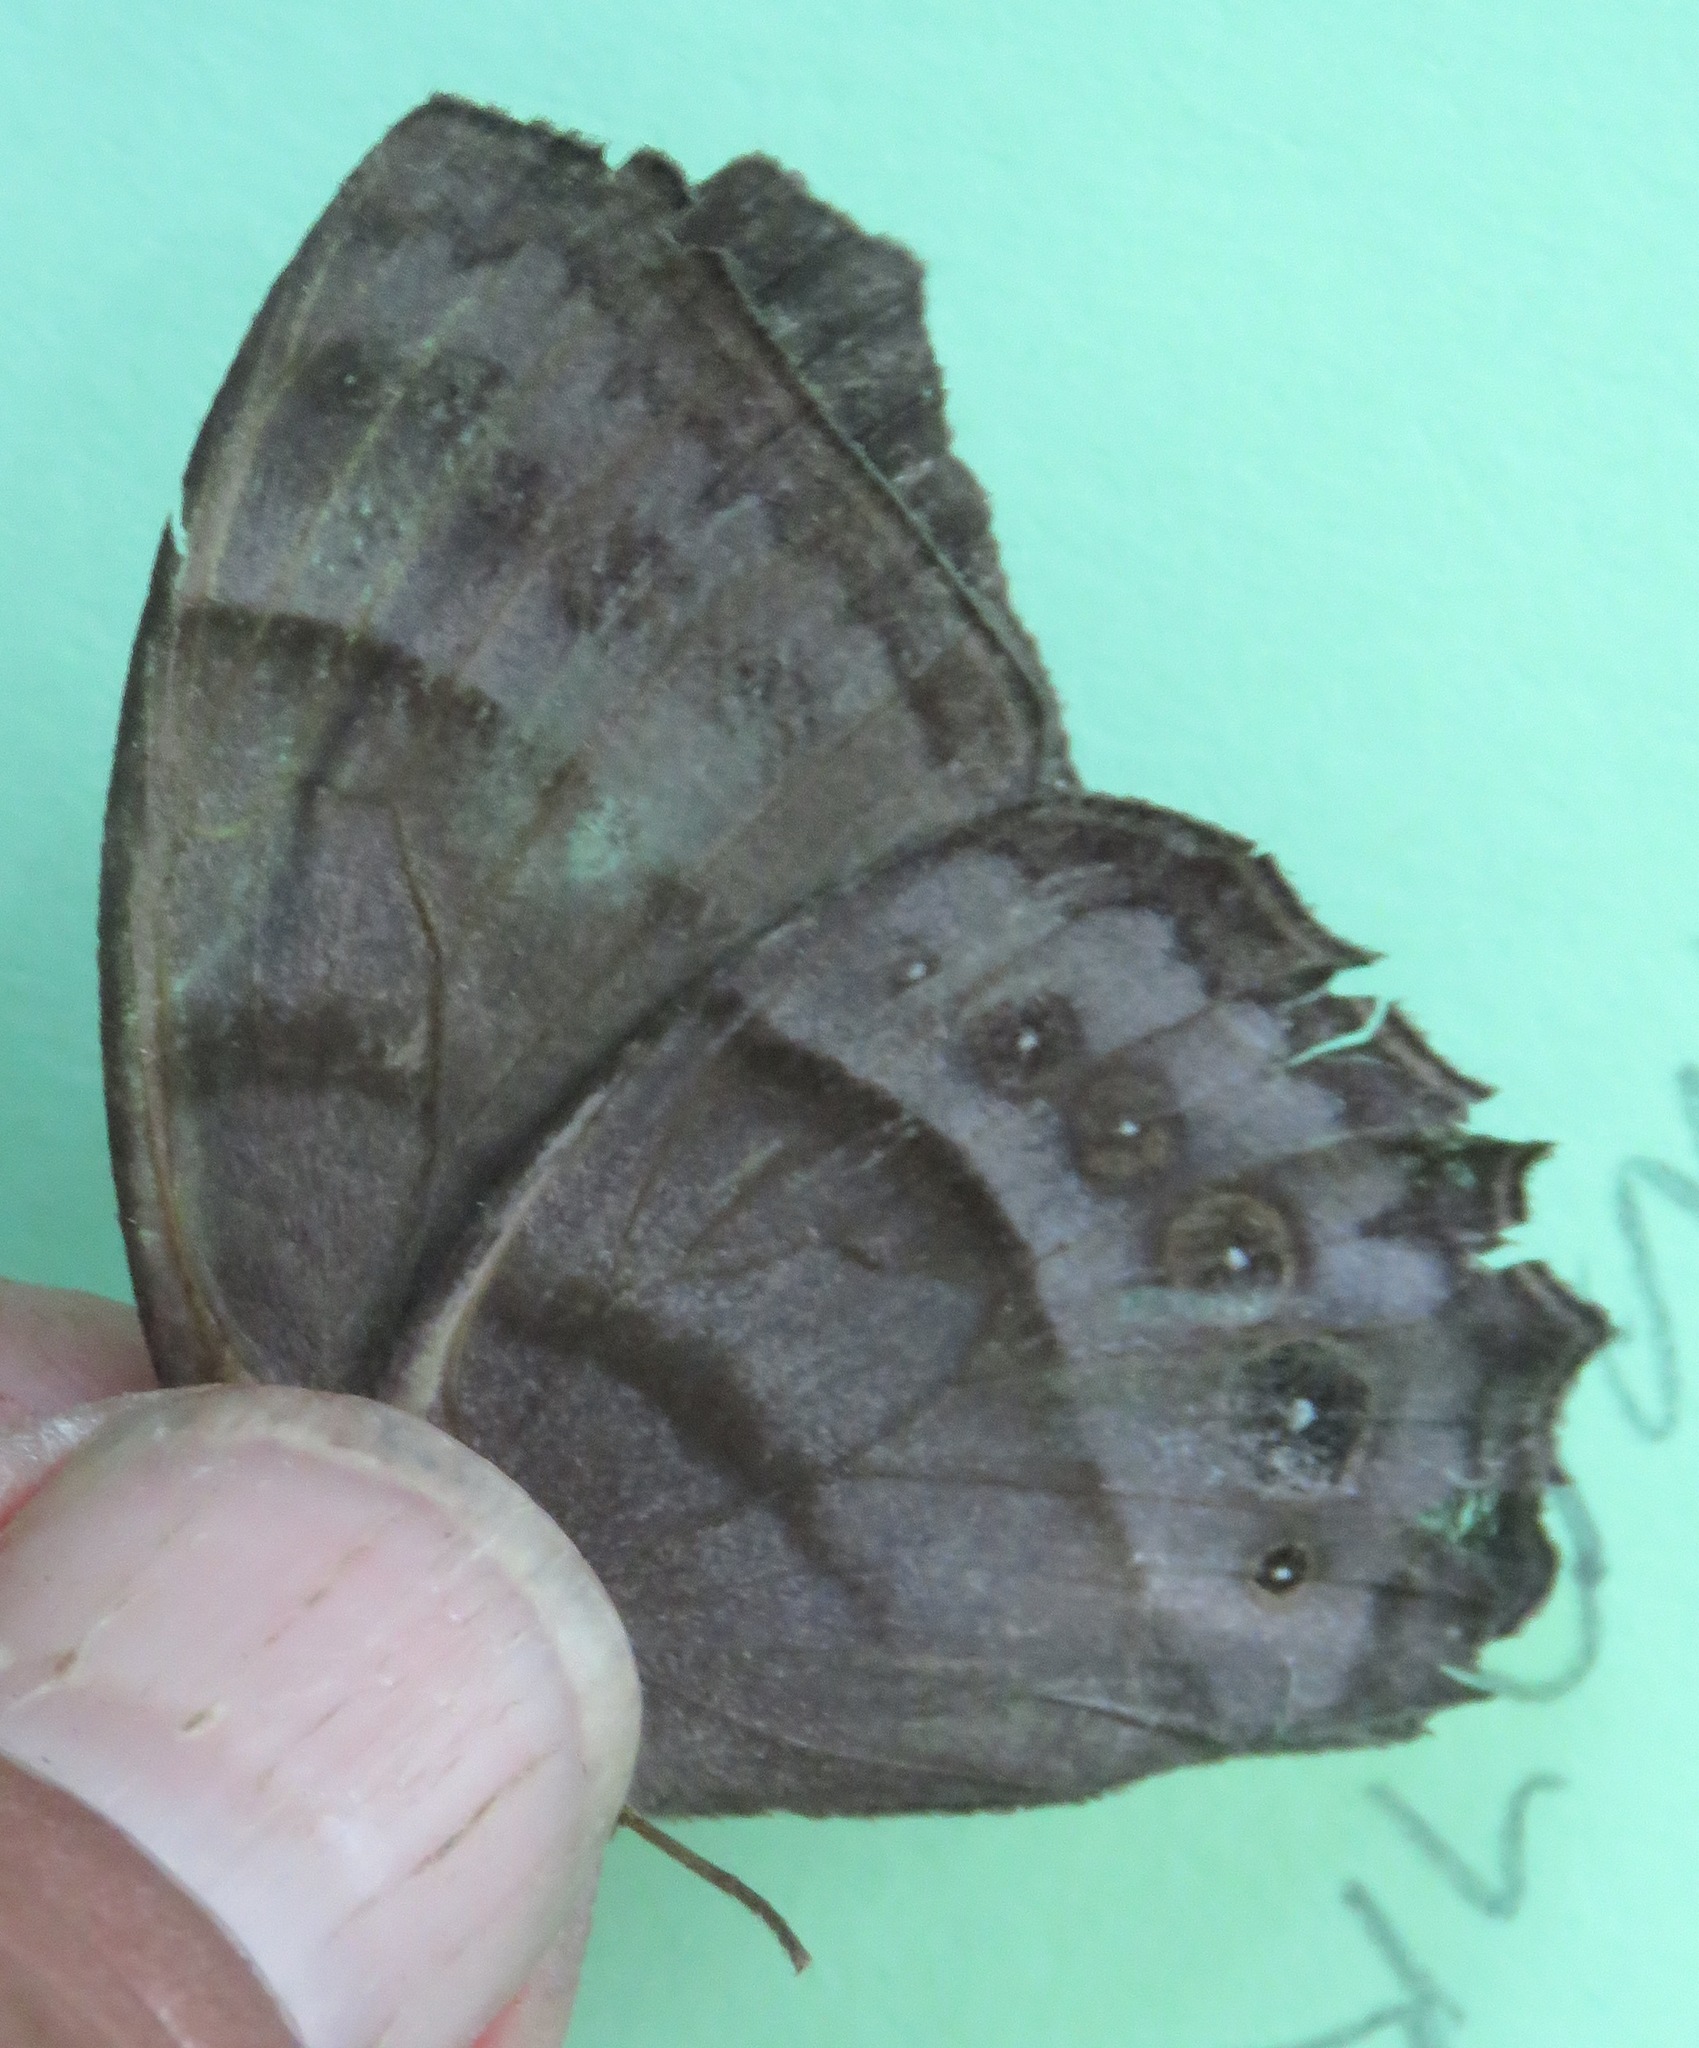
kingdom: Animalia
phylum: Arthropoda
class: Insecta
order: Lepidoptera
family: Nymphalidae
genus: Taygetis
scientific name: Taygetis inconspicua
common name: Inconspicuous satyr
